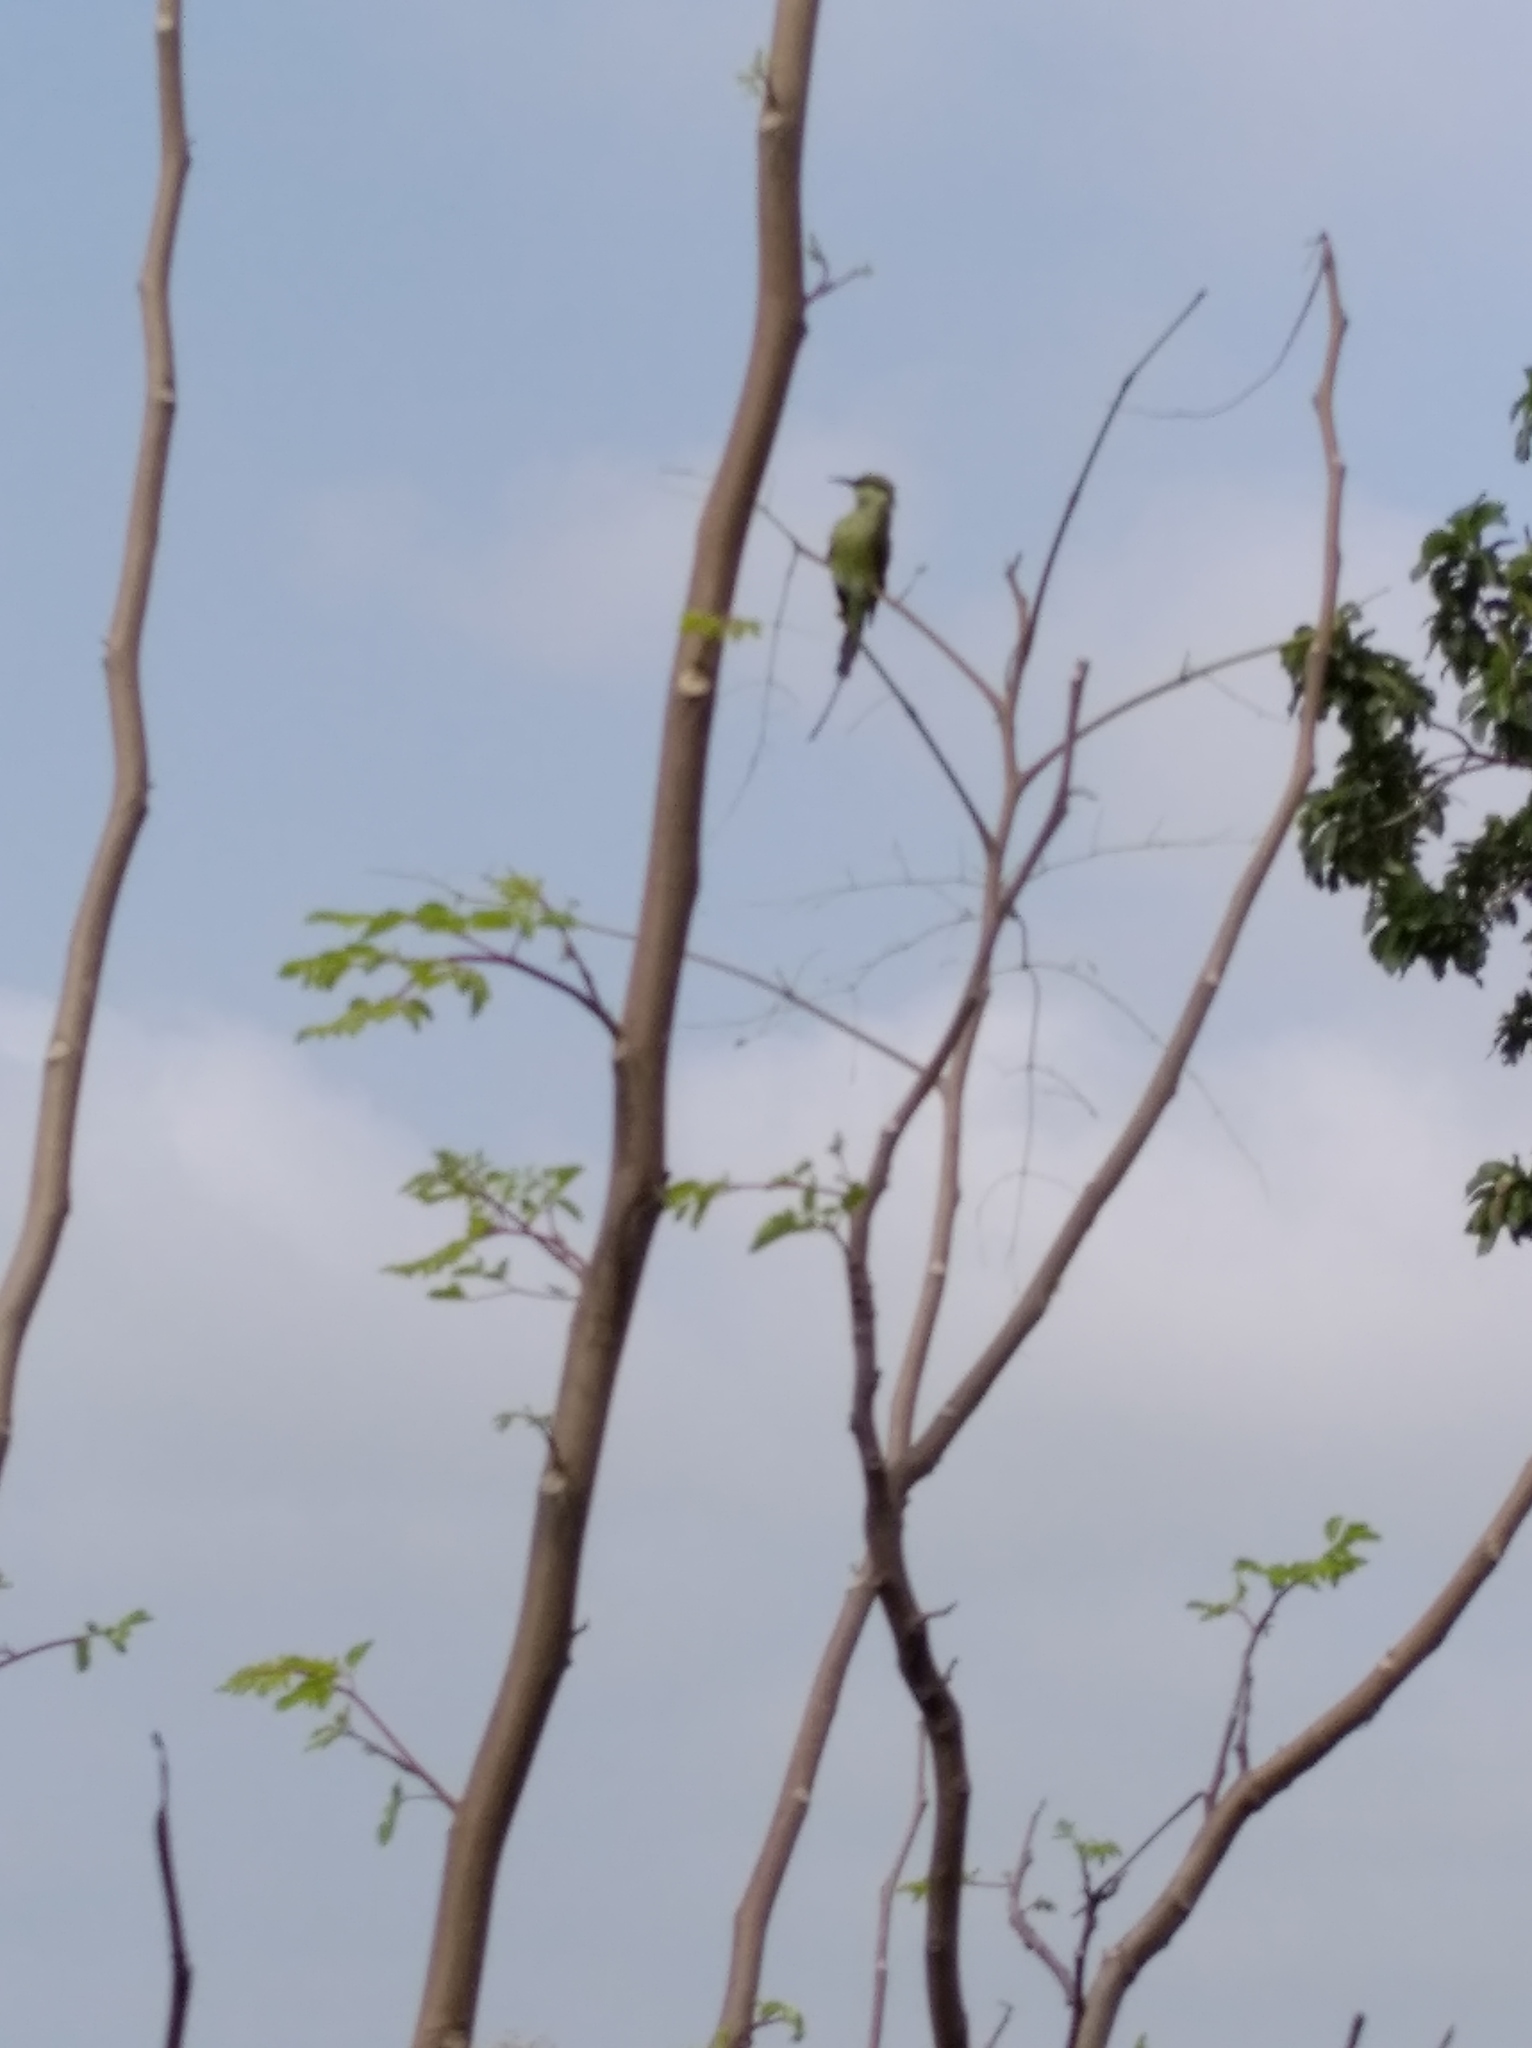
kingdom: Animalia
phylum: Chordata
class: Aves
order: Coraciiformes
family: Meropidae
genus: Merops
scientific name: Merops orientalis
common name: Green bee-eater
